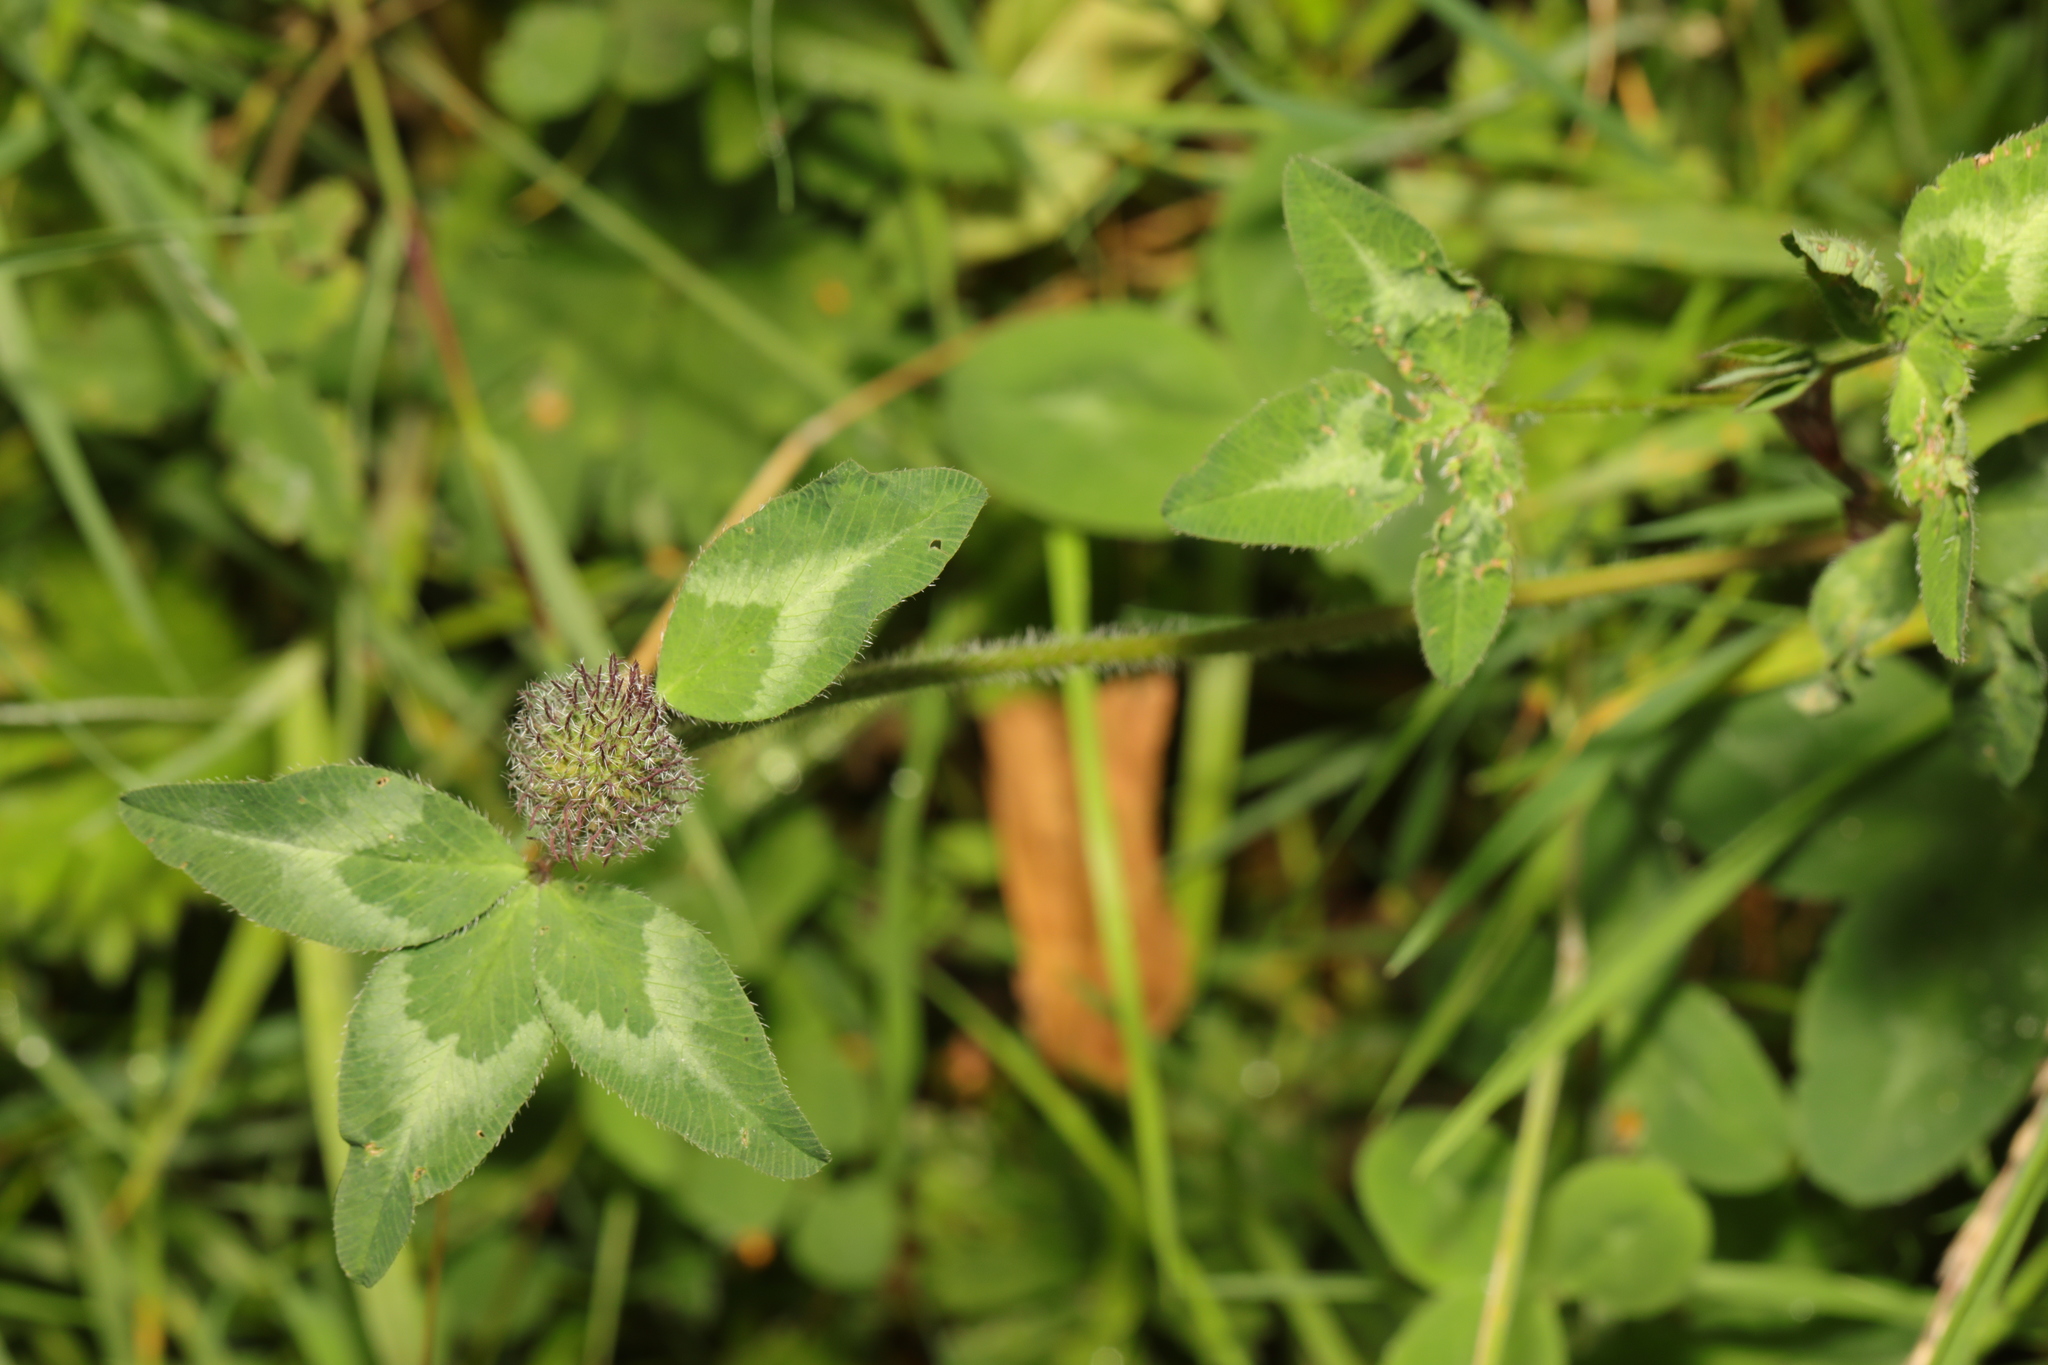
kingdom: Plantae
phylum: Tracheophyta
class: Magnoliopsida
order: Fabales
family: Fabaceae
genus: Trifolium
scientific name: Trifolium pratense
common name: Red clover
